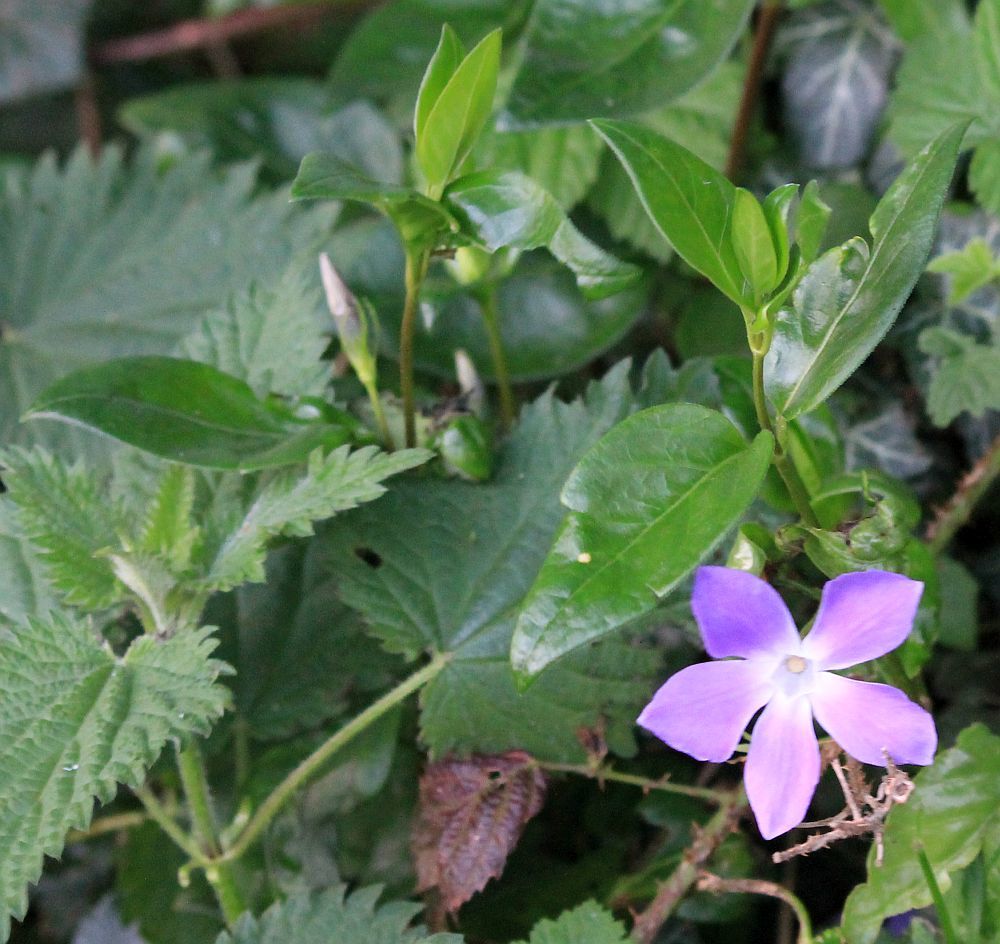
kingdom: Plantae
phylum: Tracheophyta
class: Magnoliopsida
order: Gentianales
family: Apocynaceae
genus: Vinca
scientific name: Vinca major
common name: Greater periwinkle
